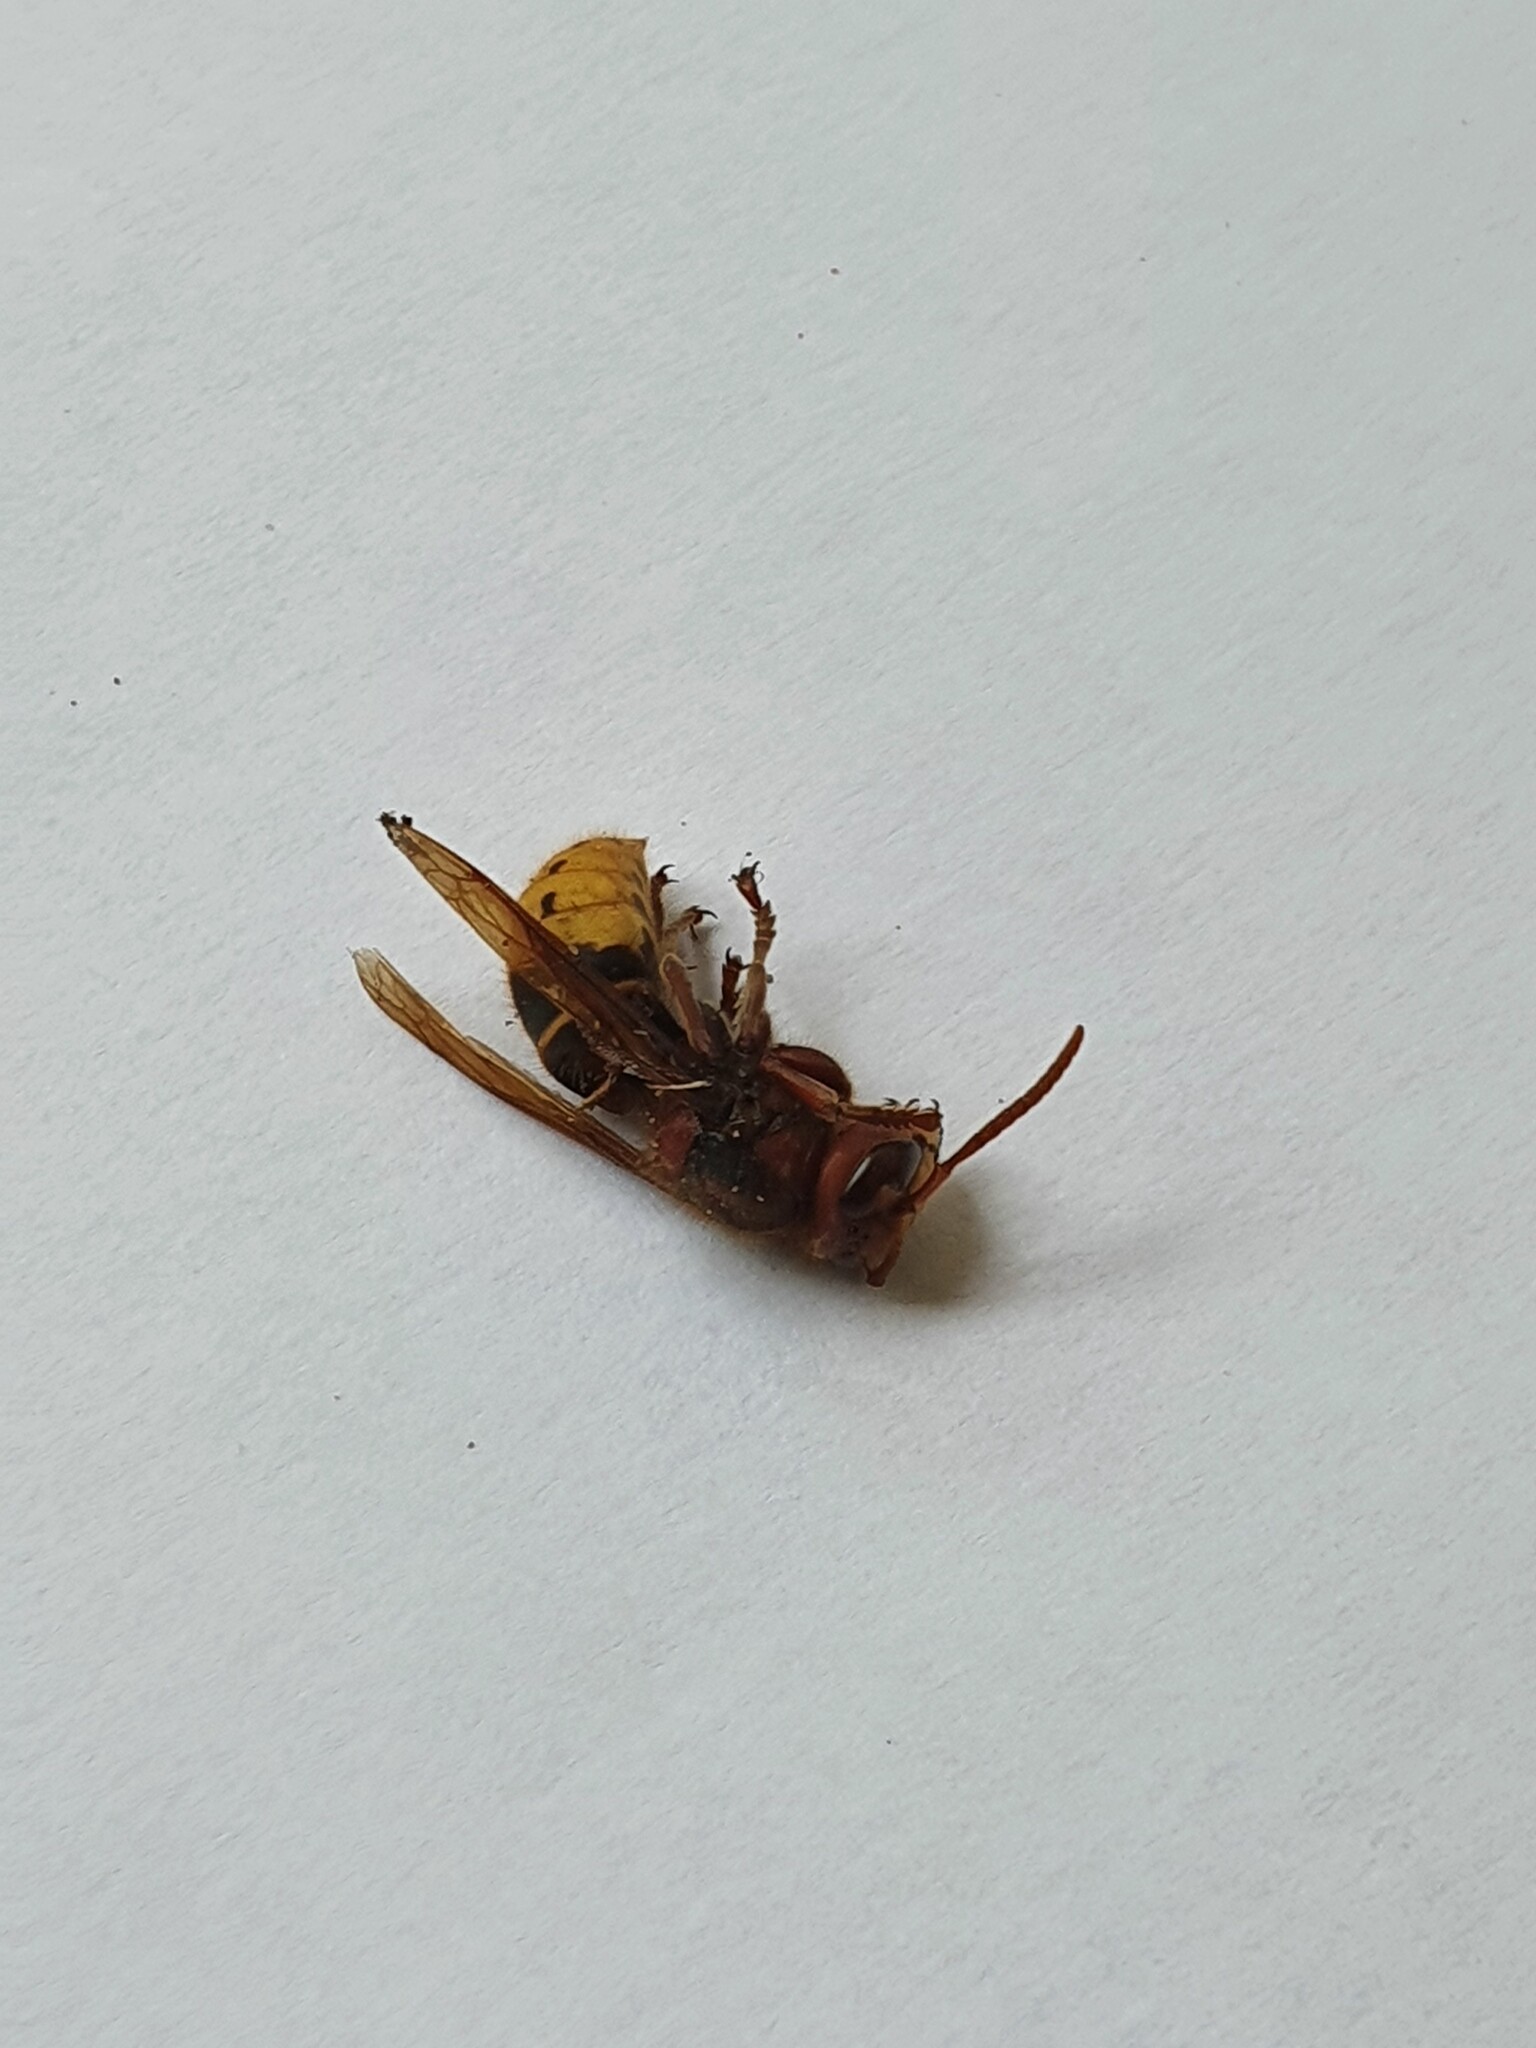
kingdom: Animalia
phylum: Arthropoda
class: Insecta
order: Hymenoptera
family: Vespidae
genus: Vespa
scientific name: Vespa crabro
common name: Hornet
